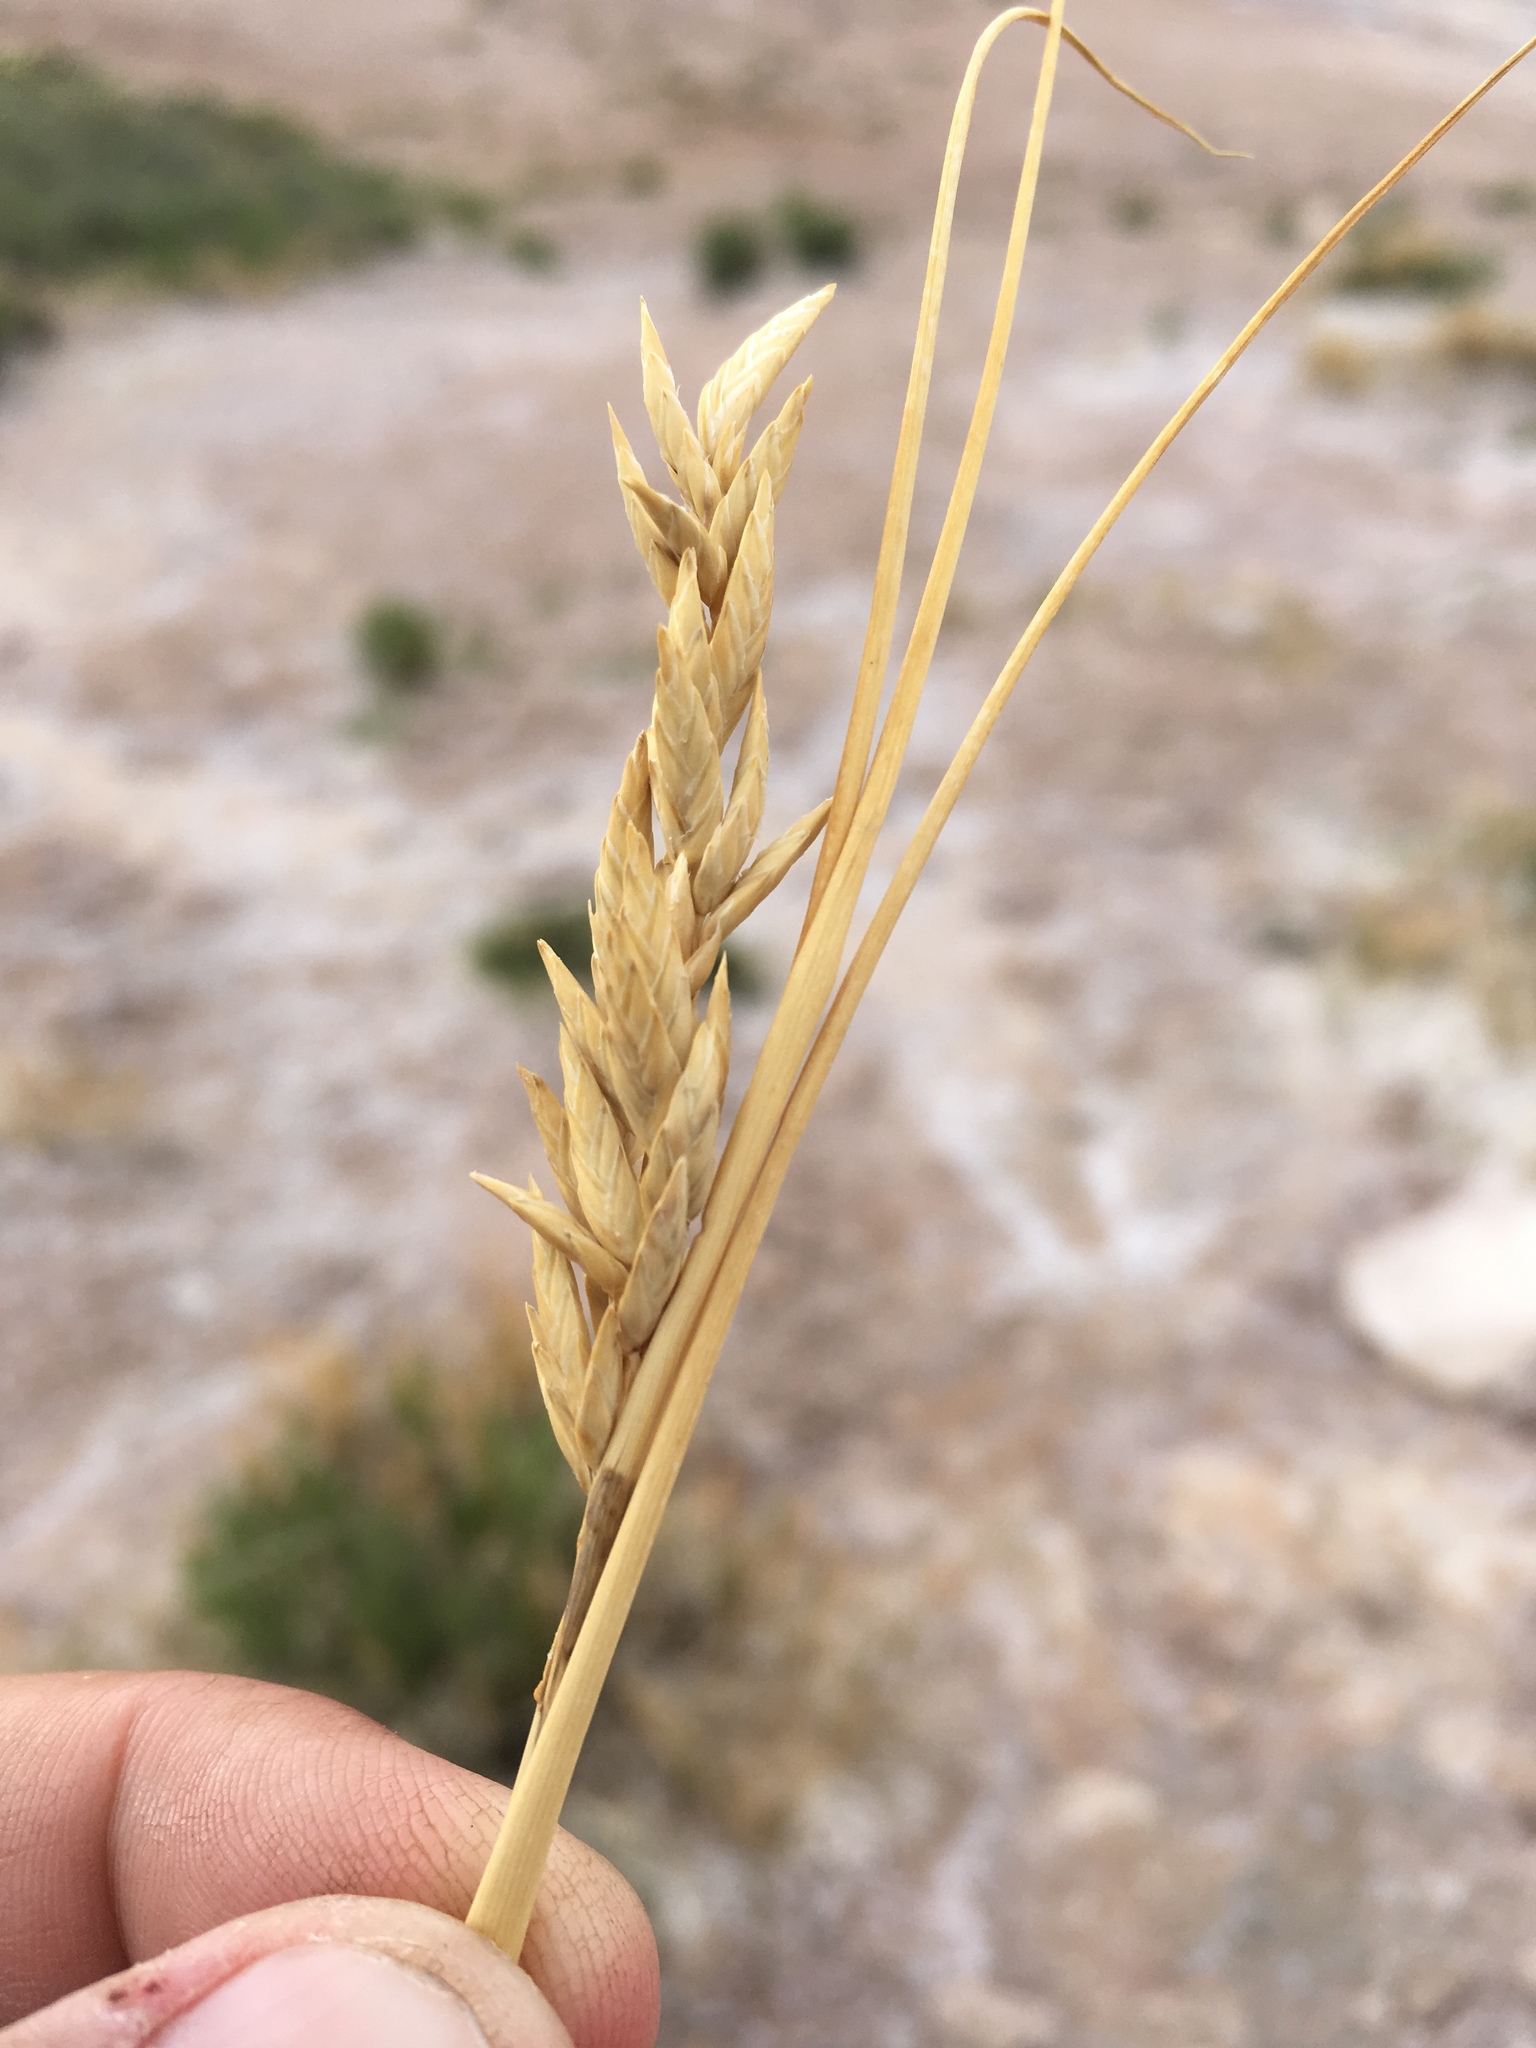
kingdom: Plantae
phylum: Tracheophyta
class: Liliopsida
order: Poales
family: Poaceae
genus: Distichlis
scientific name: Distichlis spicata
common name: Saltgrass
